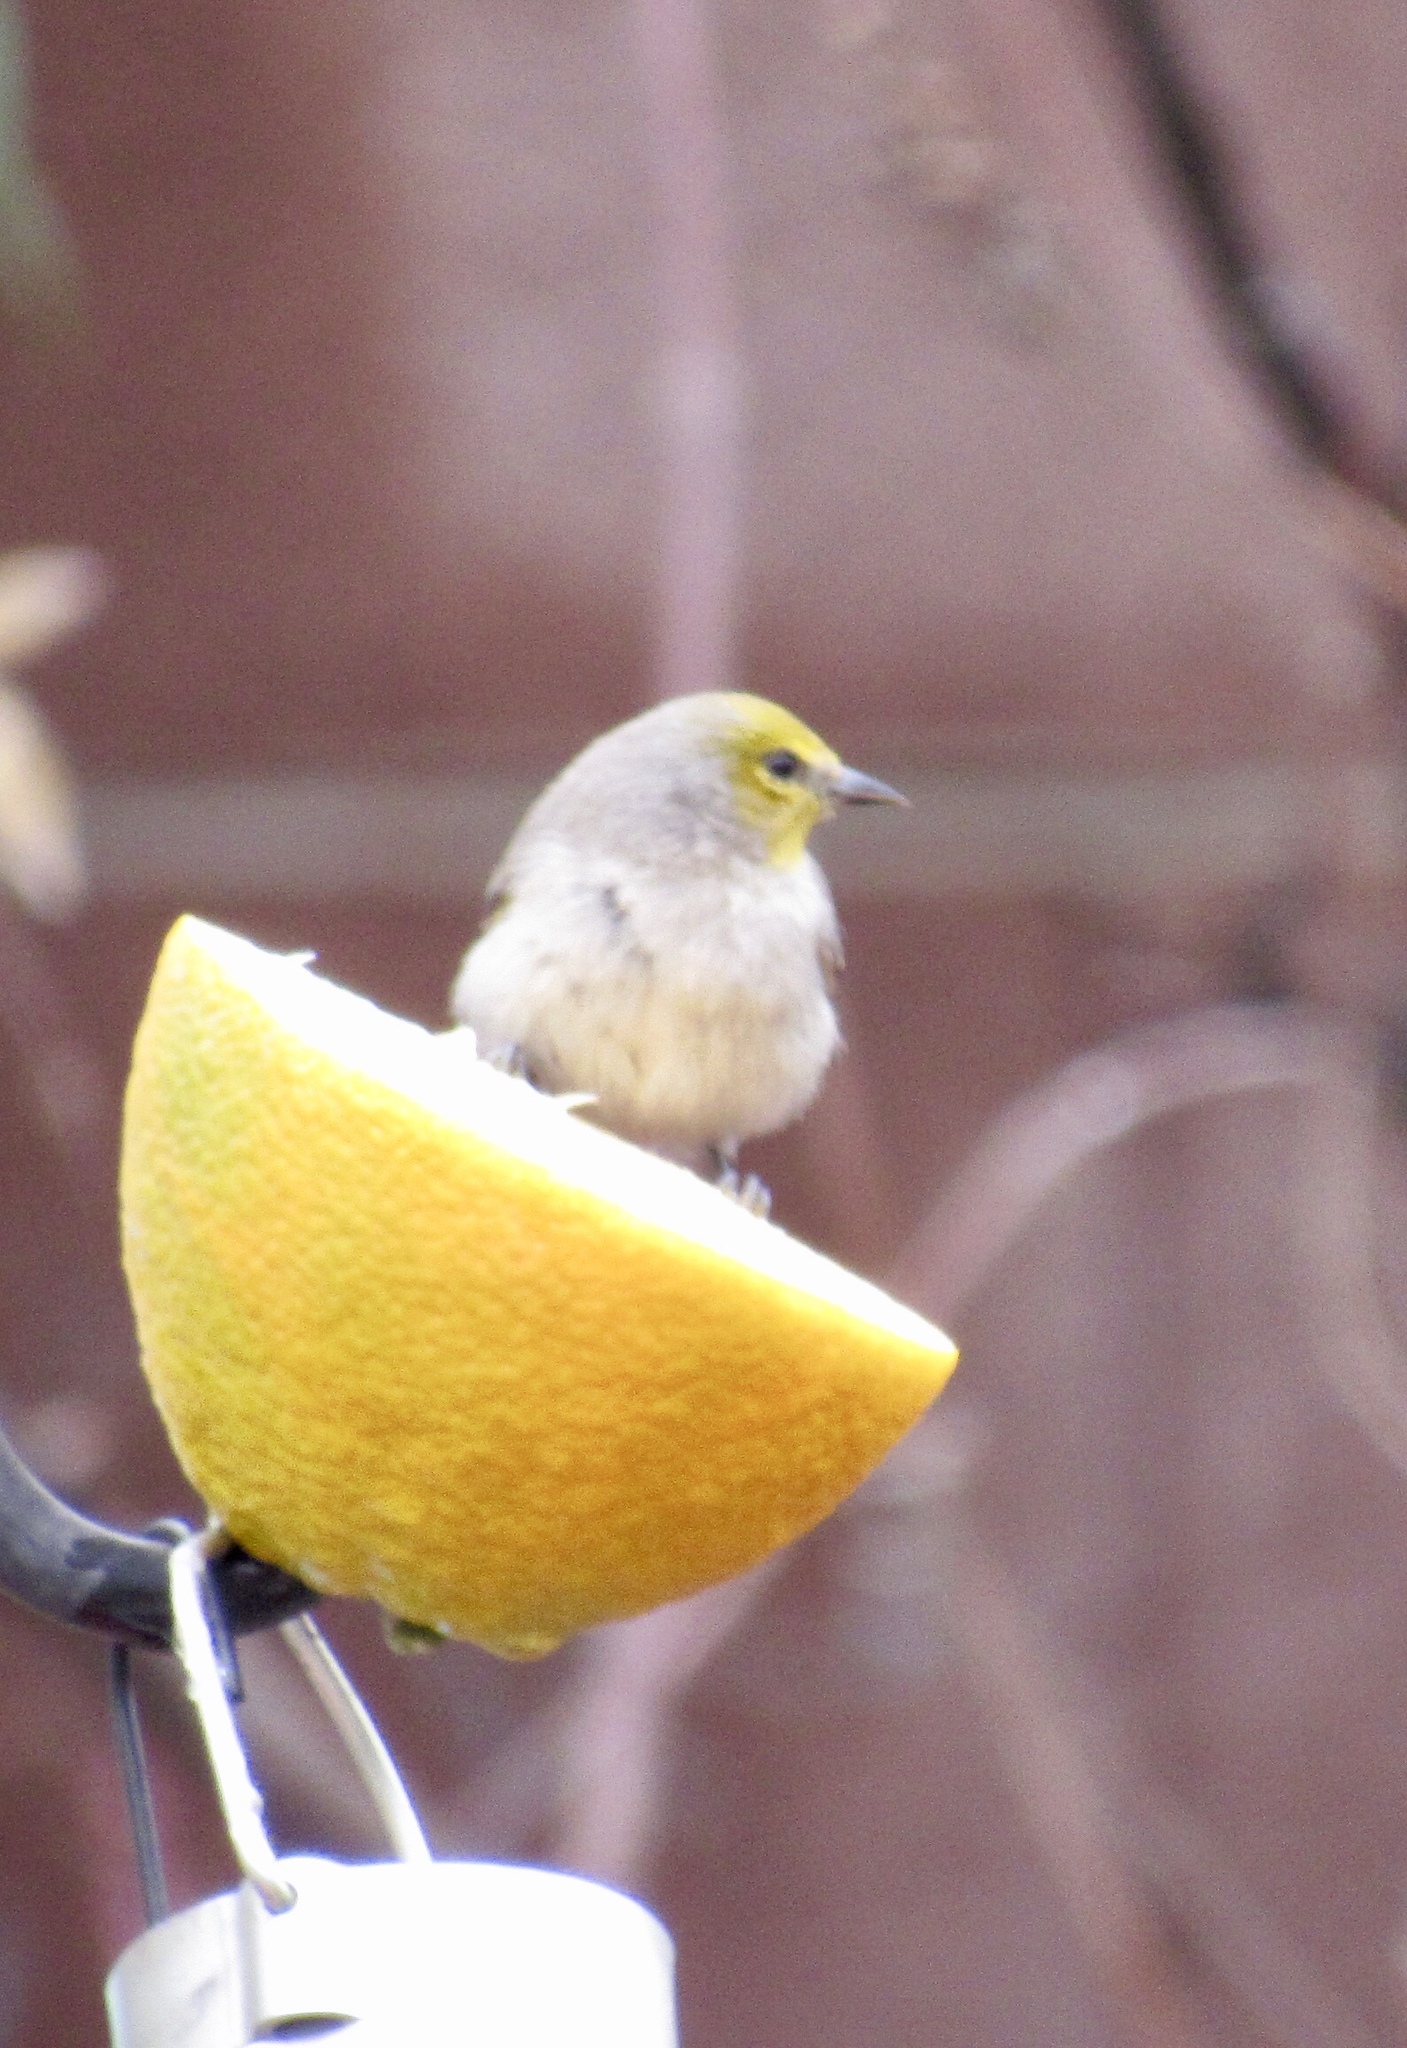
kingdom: Animalia
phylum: Chordata
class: Aves
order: Passeriformes
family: Remizidae
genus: Auriparus
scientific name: Auriparus flaviceps
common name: Verdin
